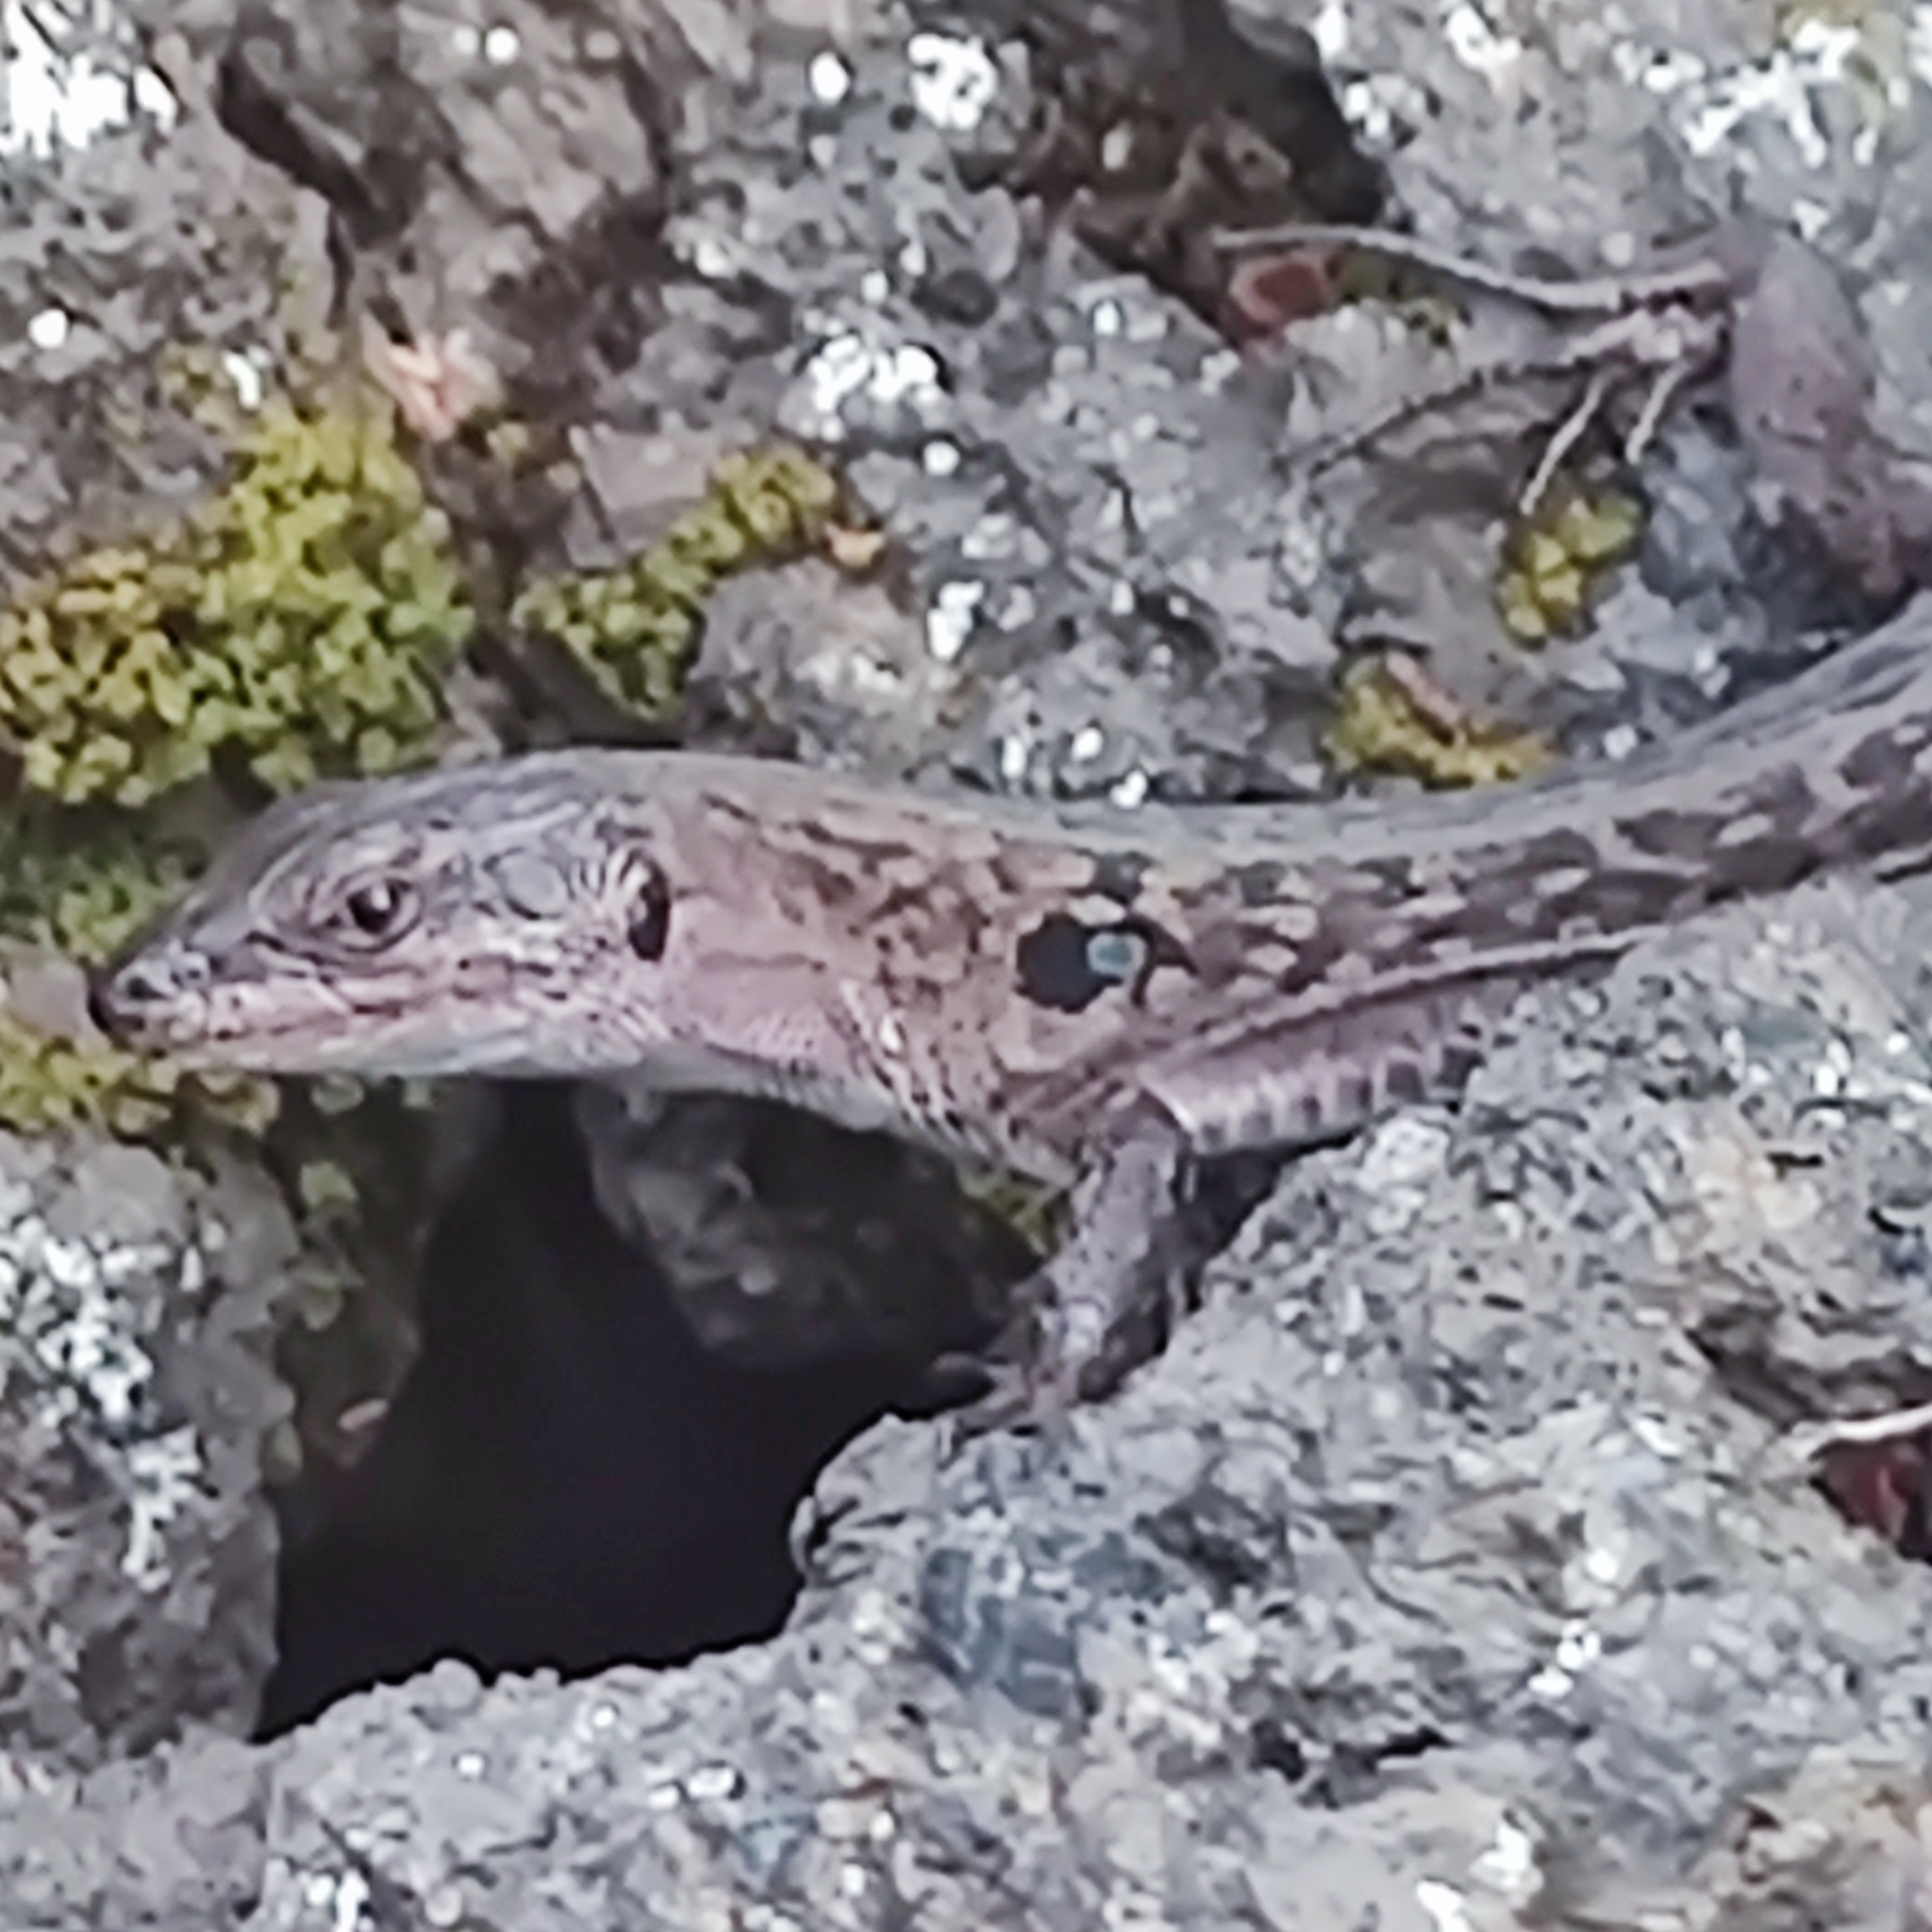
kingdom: Animalia
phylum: Chordata
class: Squamata
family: Lacertidae
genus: Podarcis
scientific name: Podarcis siculus
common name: Italian wall lizard
